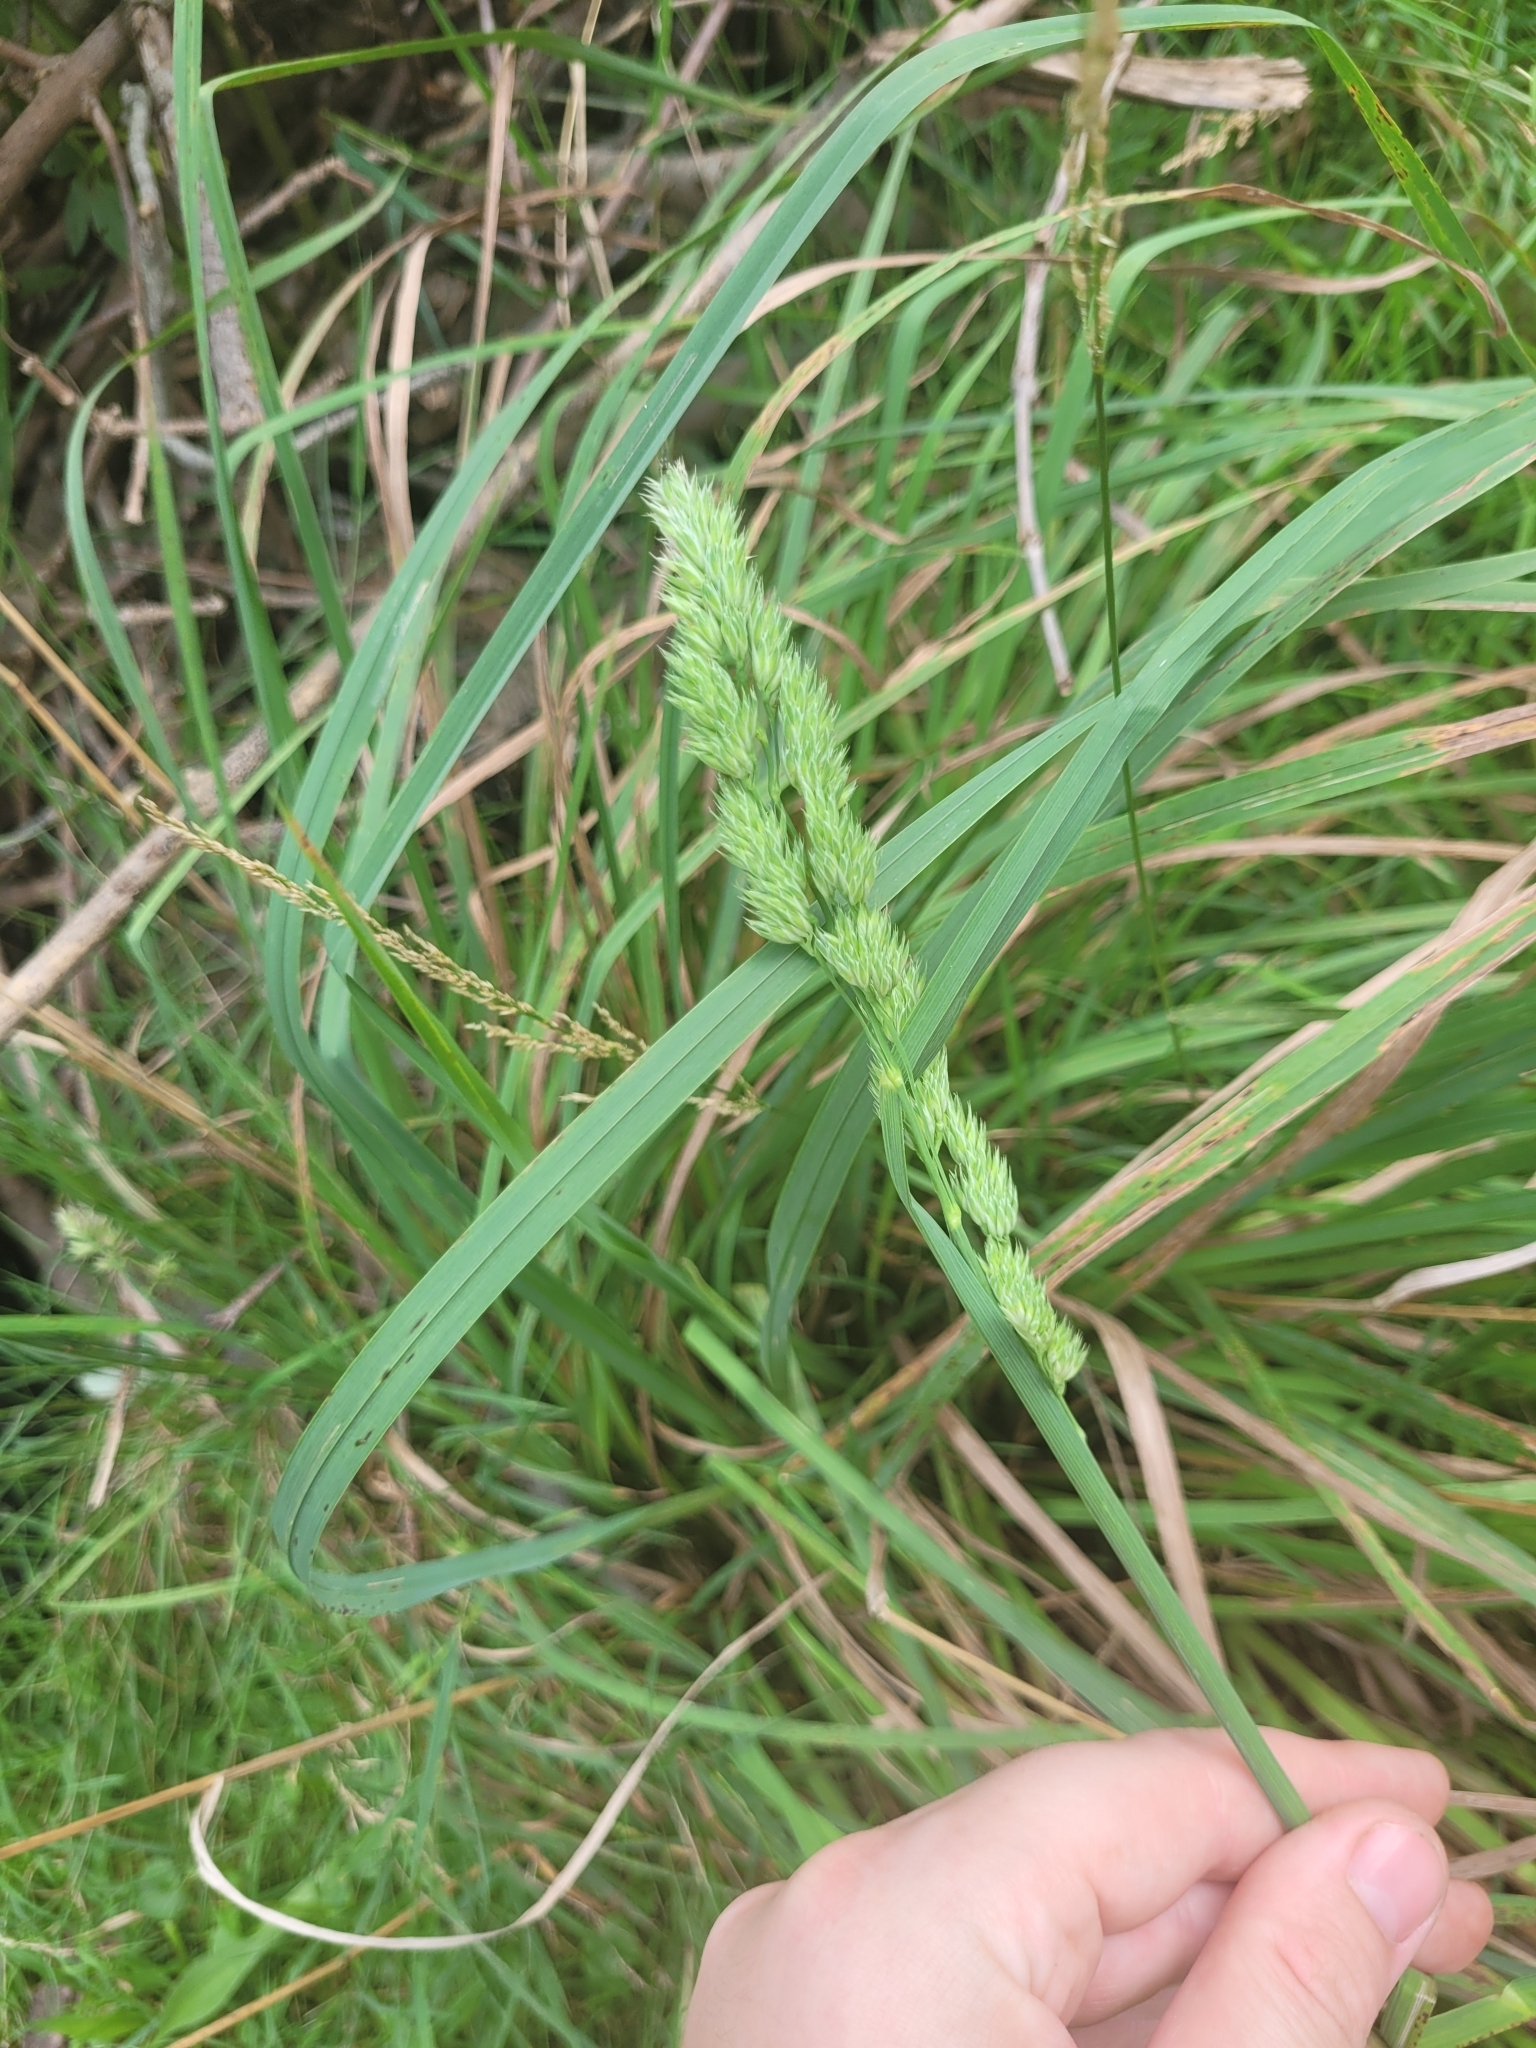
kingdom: Plantae
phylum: Tracheophyta
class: Liliopsida
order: Poales
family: Poaceae
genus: Dactylis
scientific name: Dactylis glomerata
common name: Orchardgrass
